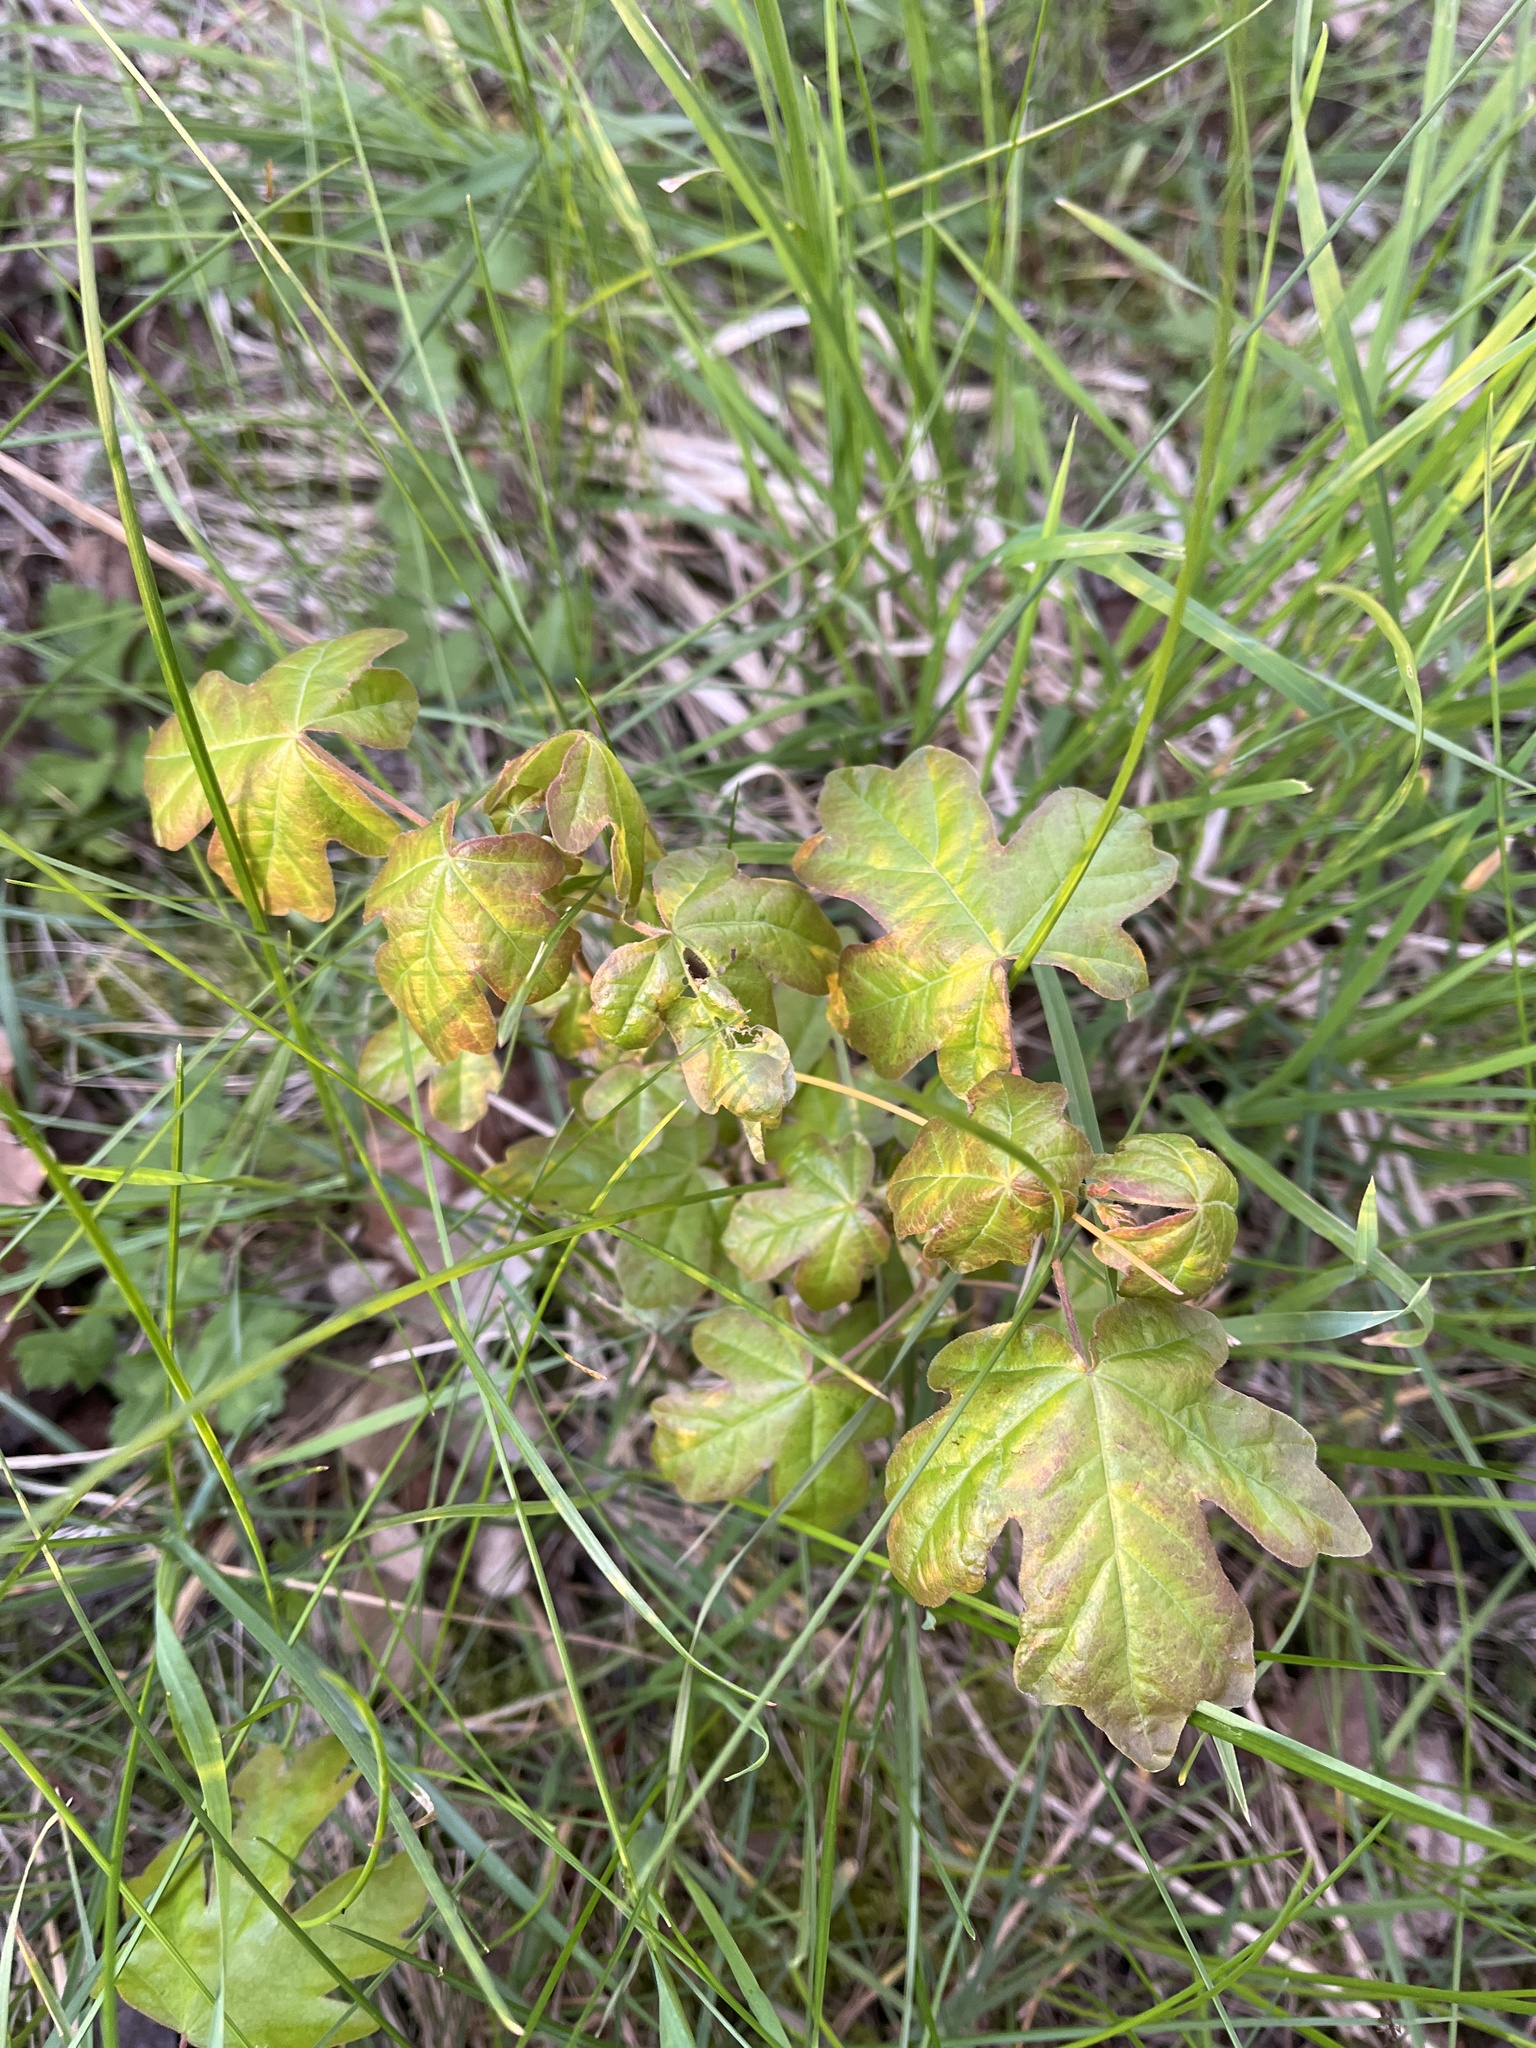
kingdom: Plantae
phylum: Tracheophyta
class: Magnoliopsida
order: Sapindales
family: Sapindaceae
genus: Acer
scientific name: Acer campestre
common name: Field maple
